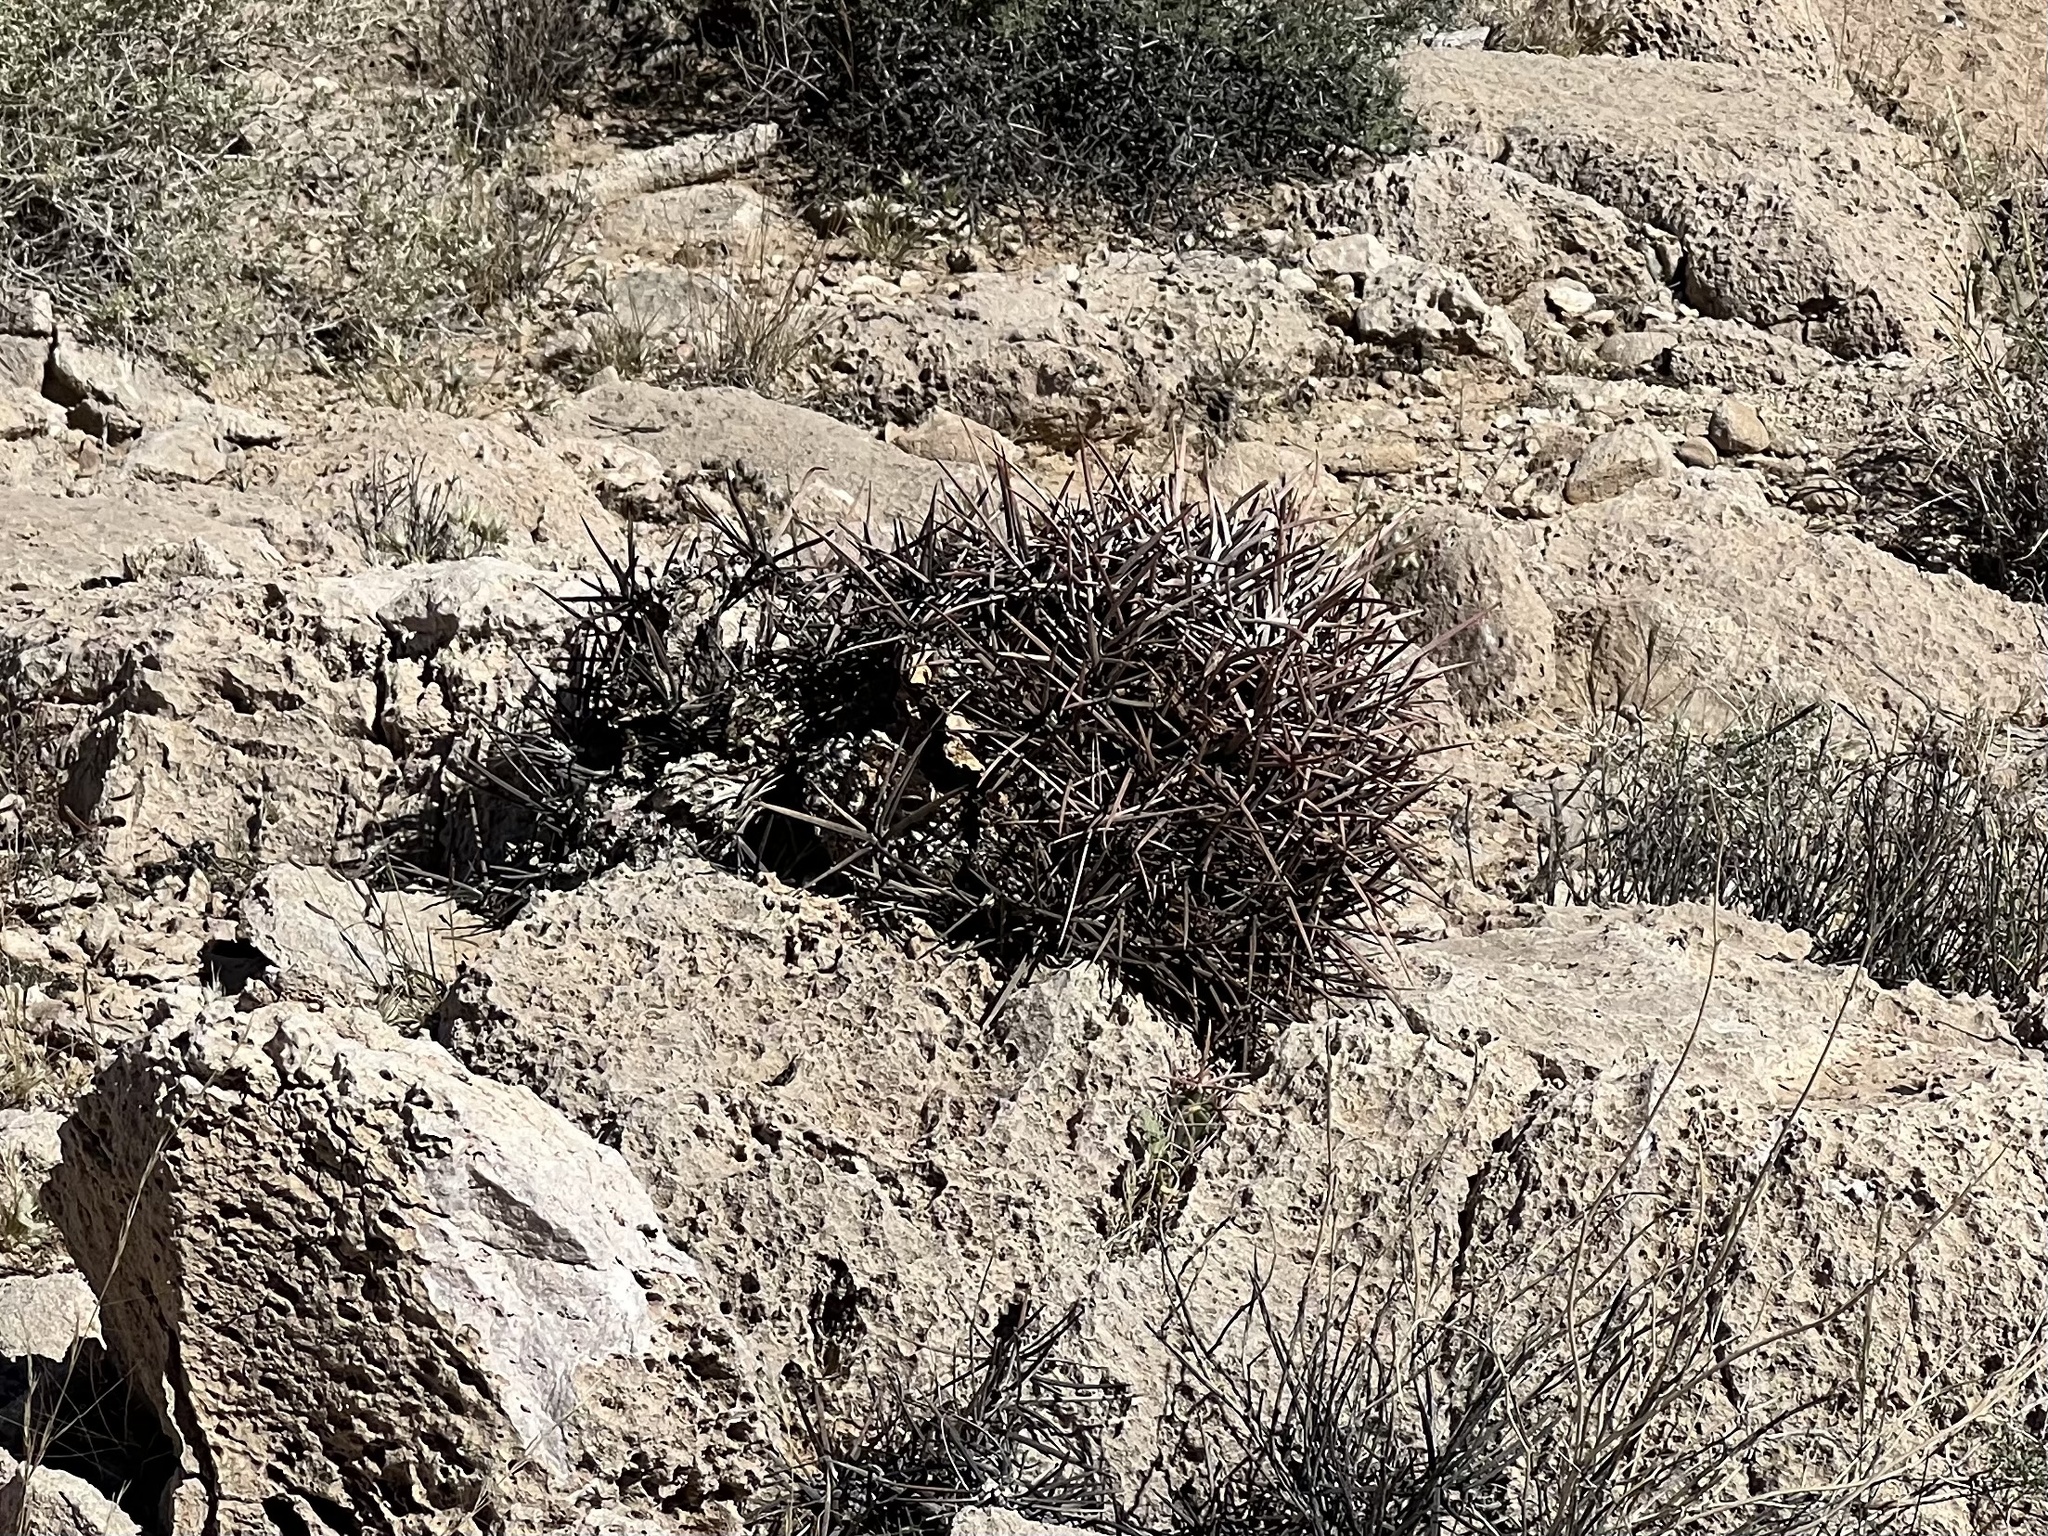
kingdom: Plantae
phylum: Tracheophyta
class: Magnoliopsida
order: Caryophyllales
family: Cactaceae
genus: Echinocactus
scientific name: Echinocactus polycephalus
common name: Cottontop cactus
